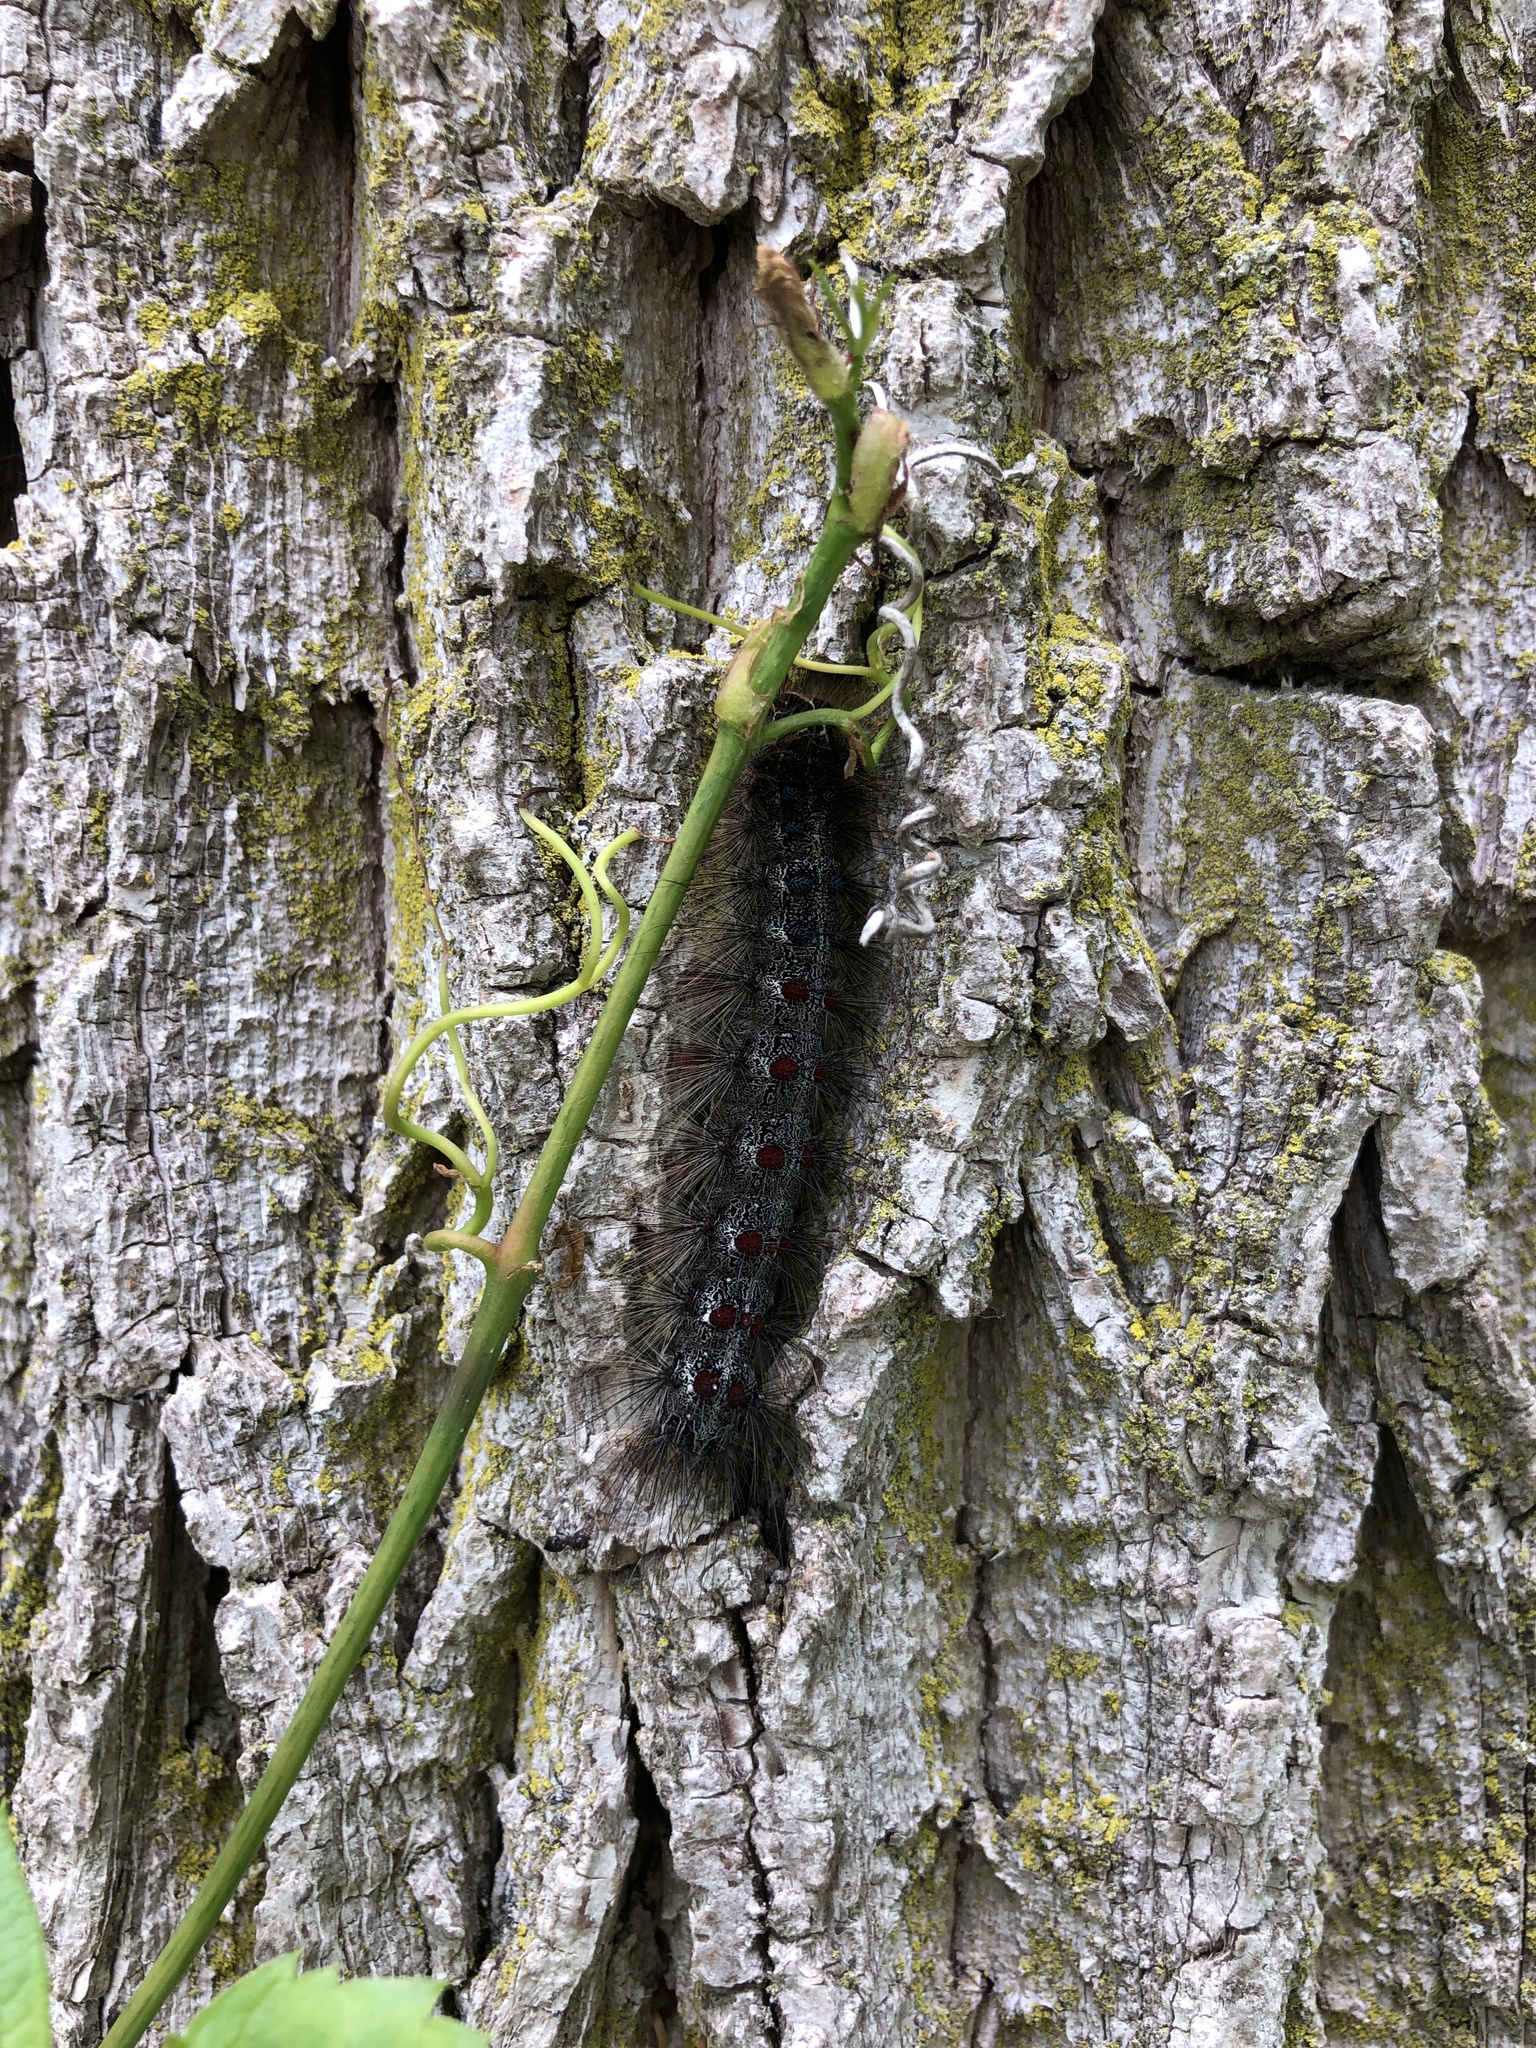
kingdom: Animalia
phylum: Arthropoda
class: Insecta
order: Lepidoptera
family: Erebidae
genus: Lymantria
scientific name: Lymantria dispar
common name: Gypsy moth
